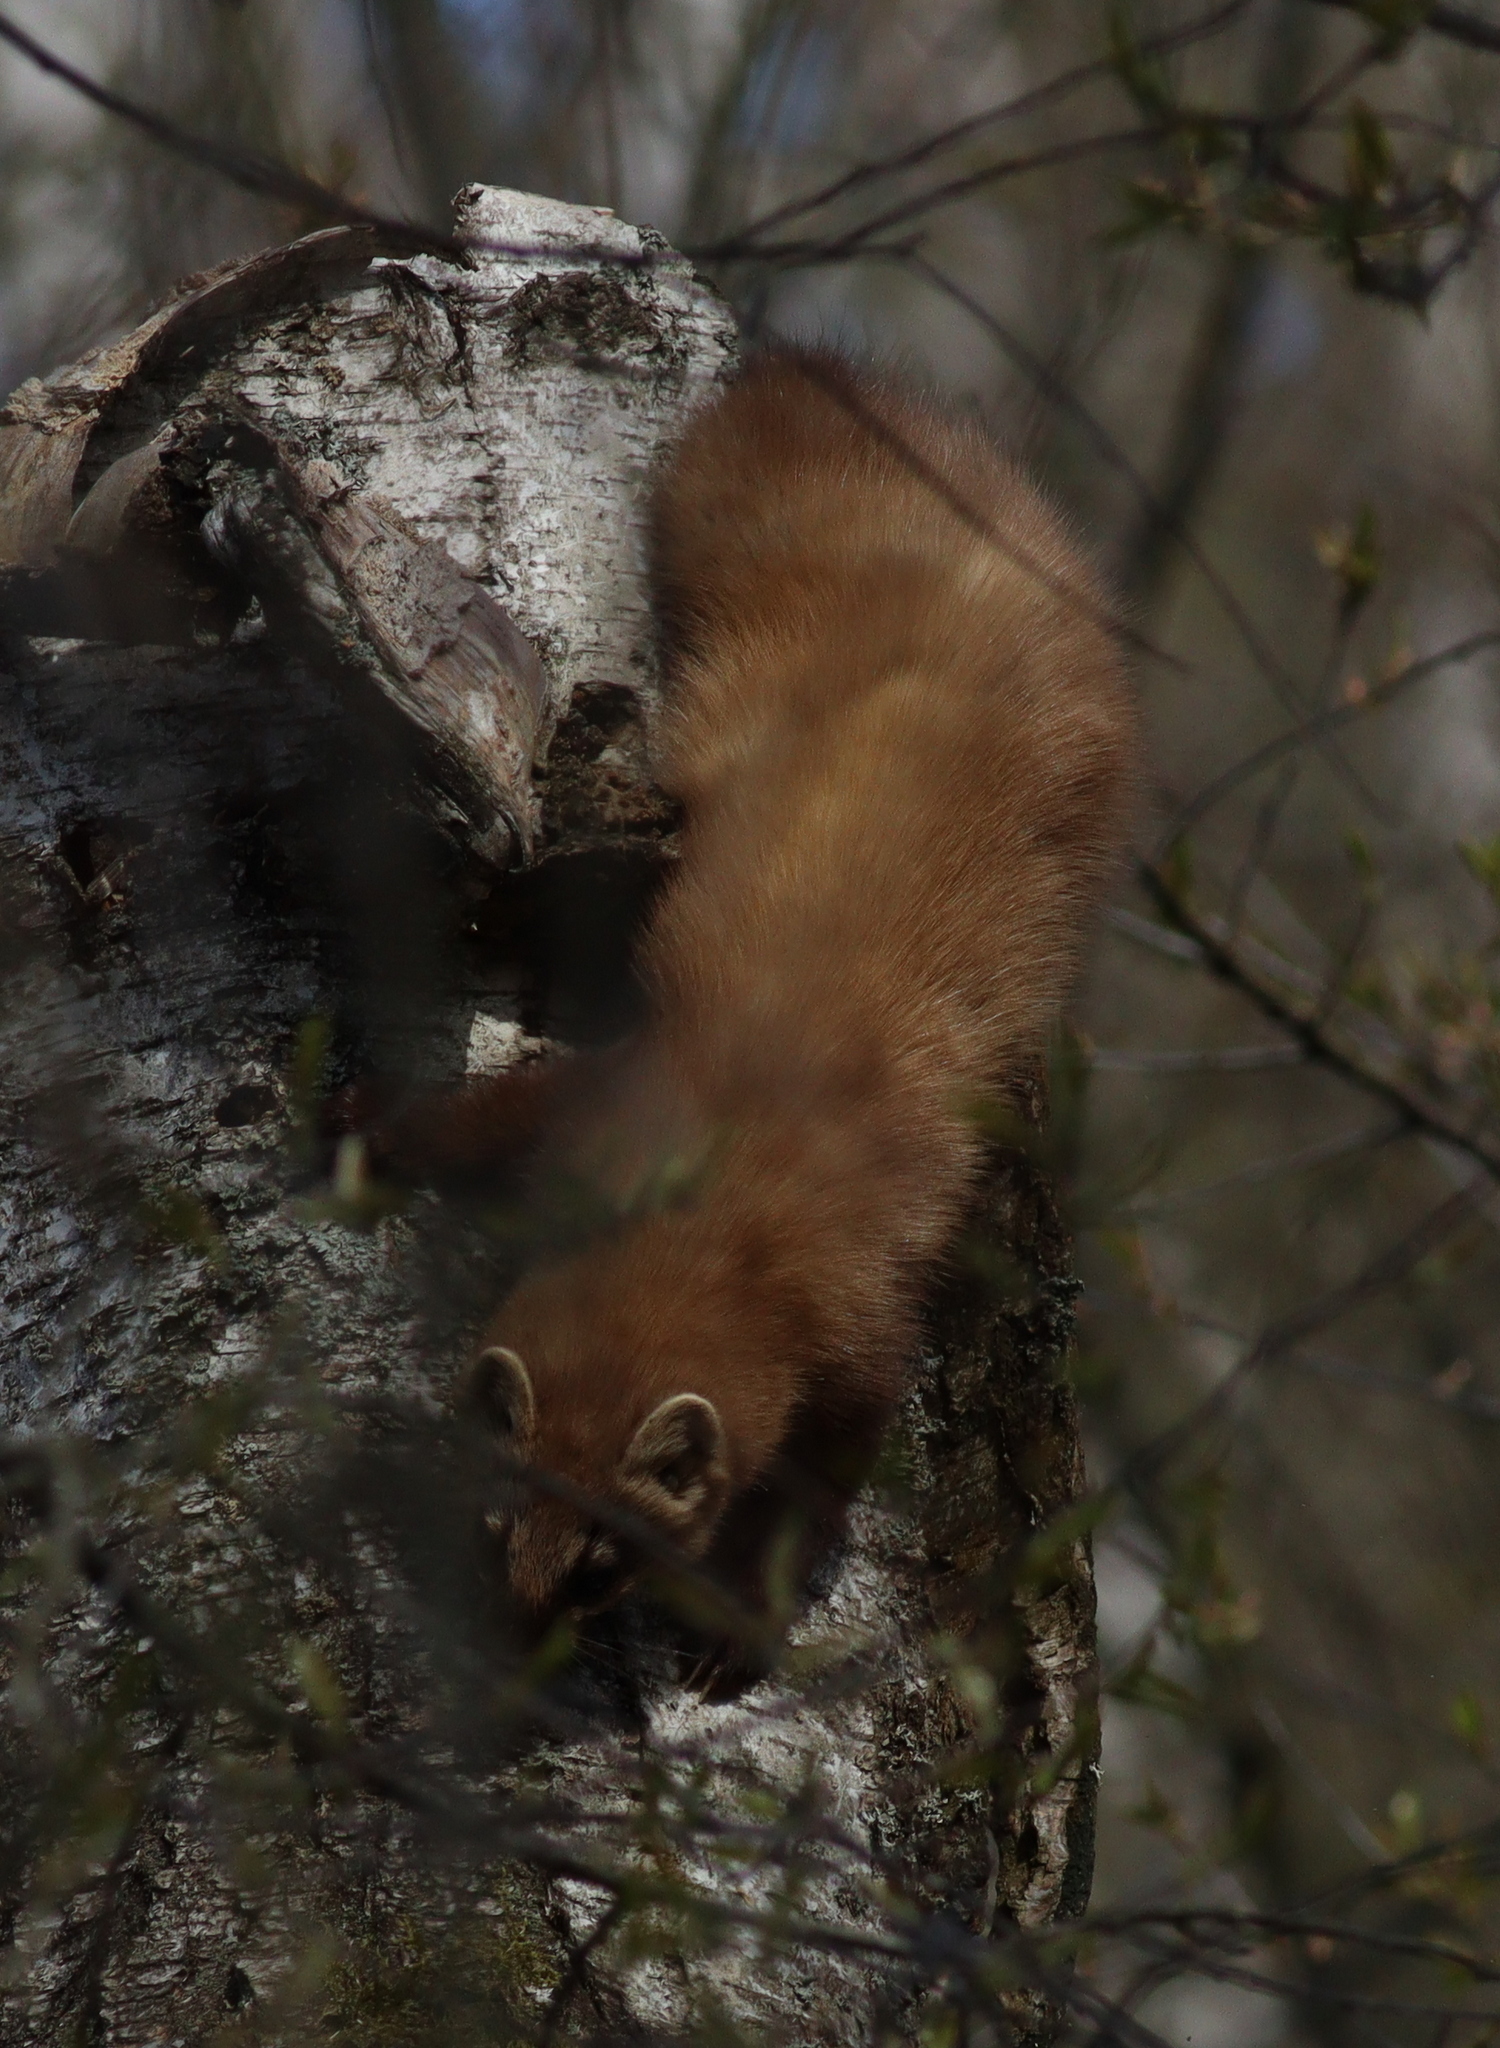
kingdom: Animalia
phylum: Chordata
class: Mammalia
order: Carnivora
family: Mustelidae
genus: Martes
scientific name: Martes martes
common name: European pine marten
